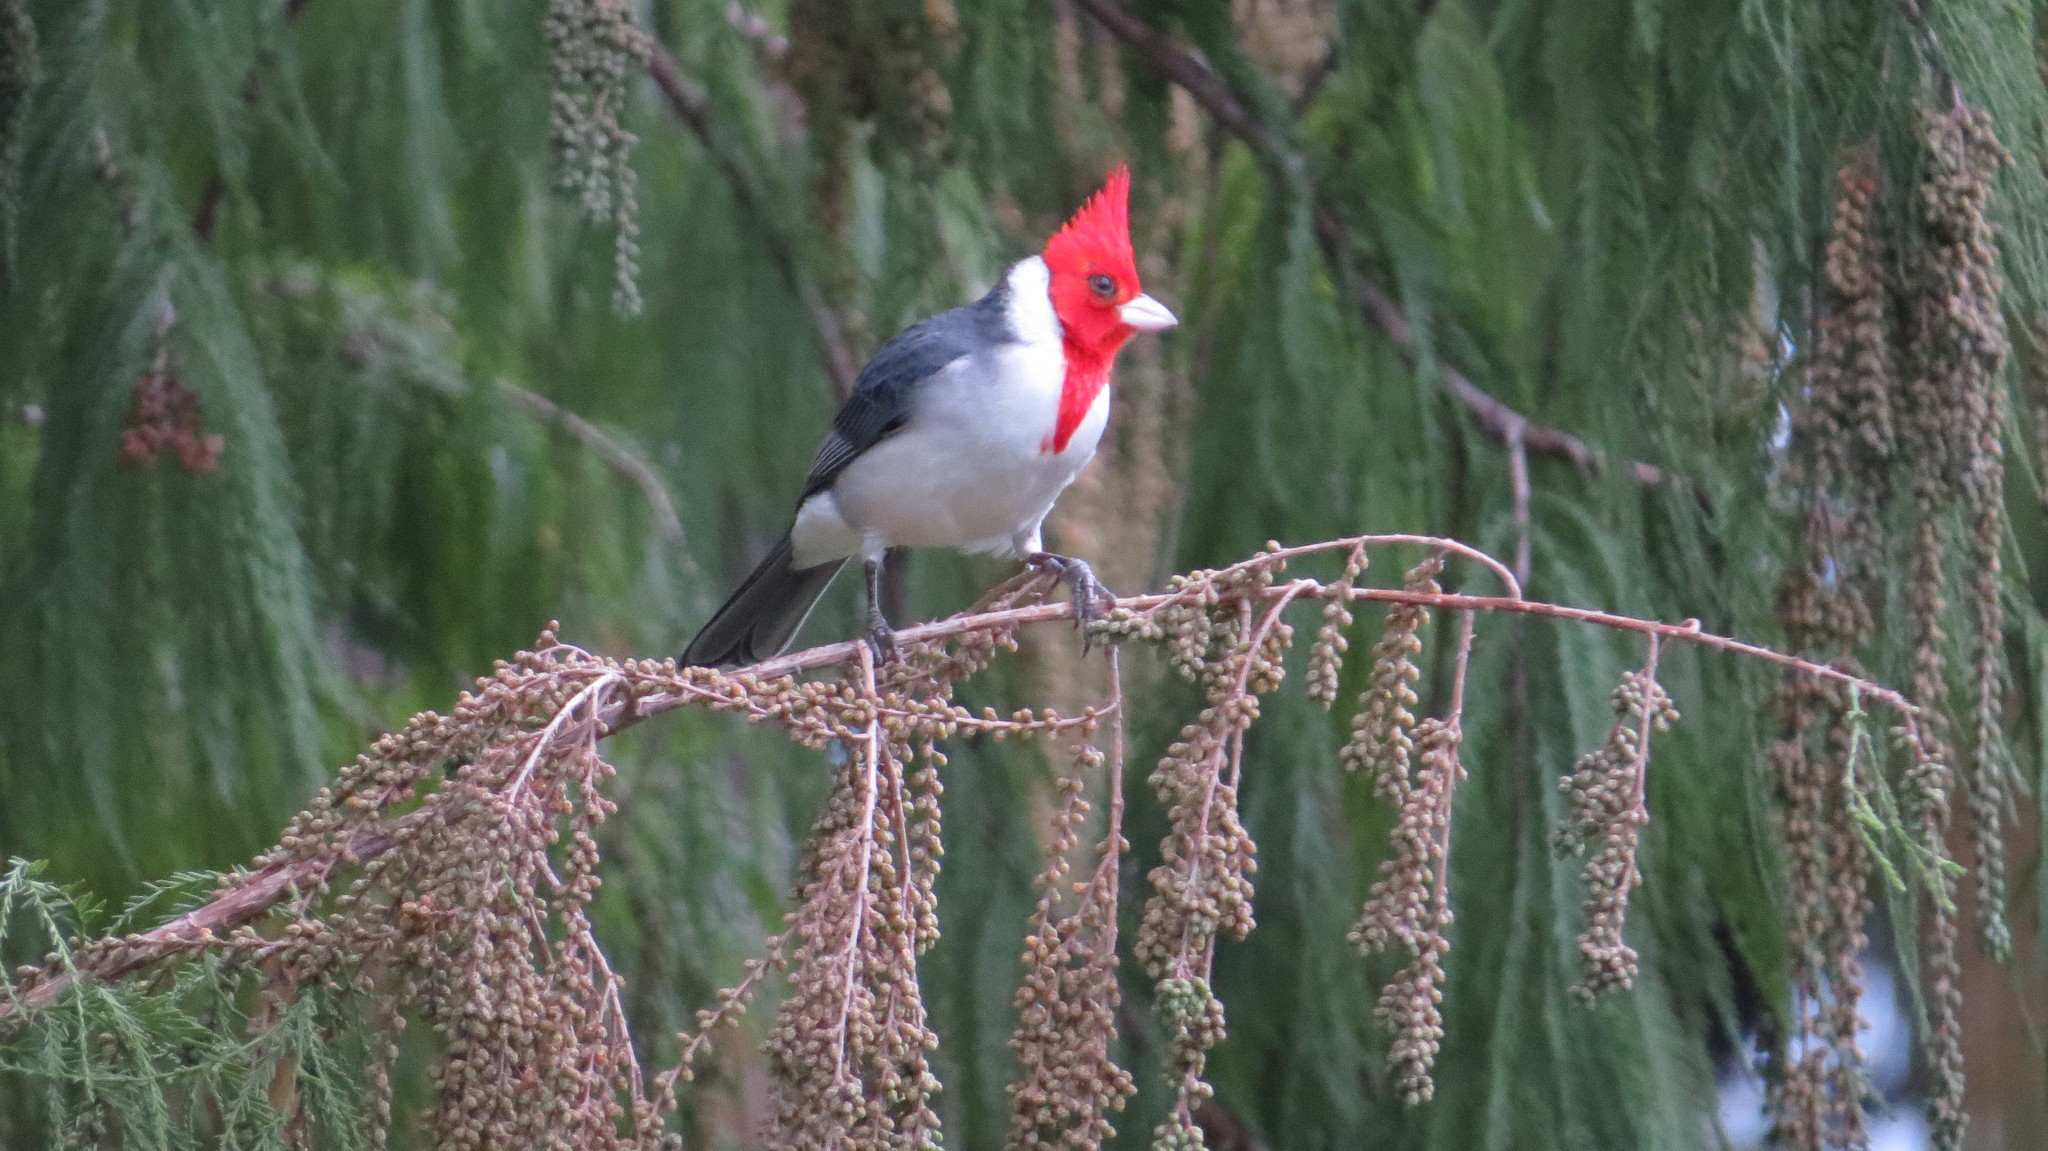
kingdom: Animalia
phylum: Chordata
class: Aves
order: Passeriformes
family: Thraupidae
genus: Paroaria
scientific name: Paroaria coronata
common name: Red-crested cardinal
